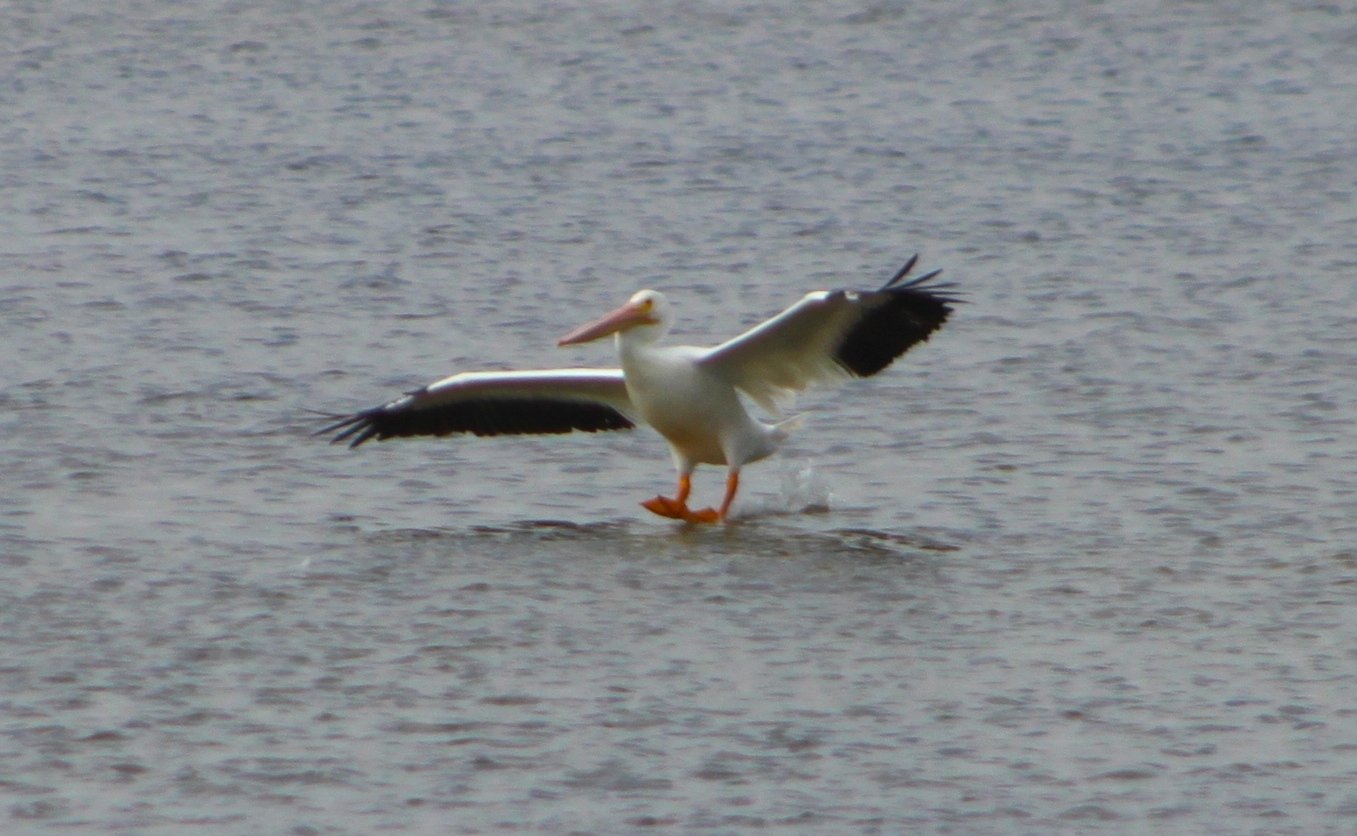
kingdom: Animalia
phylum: Chordata
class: Aves
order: Pelecaniformes
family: Pelecanidae
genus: Pelecanus
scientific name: Pelecanus erythrorhynchos
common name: American white pelican
